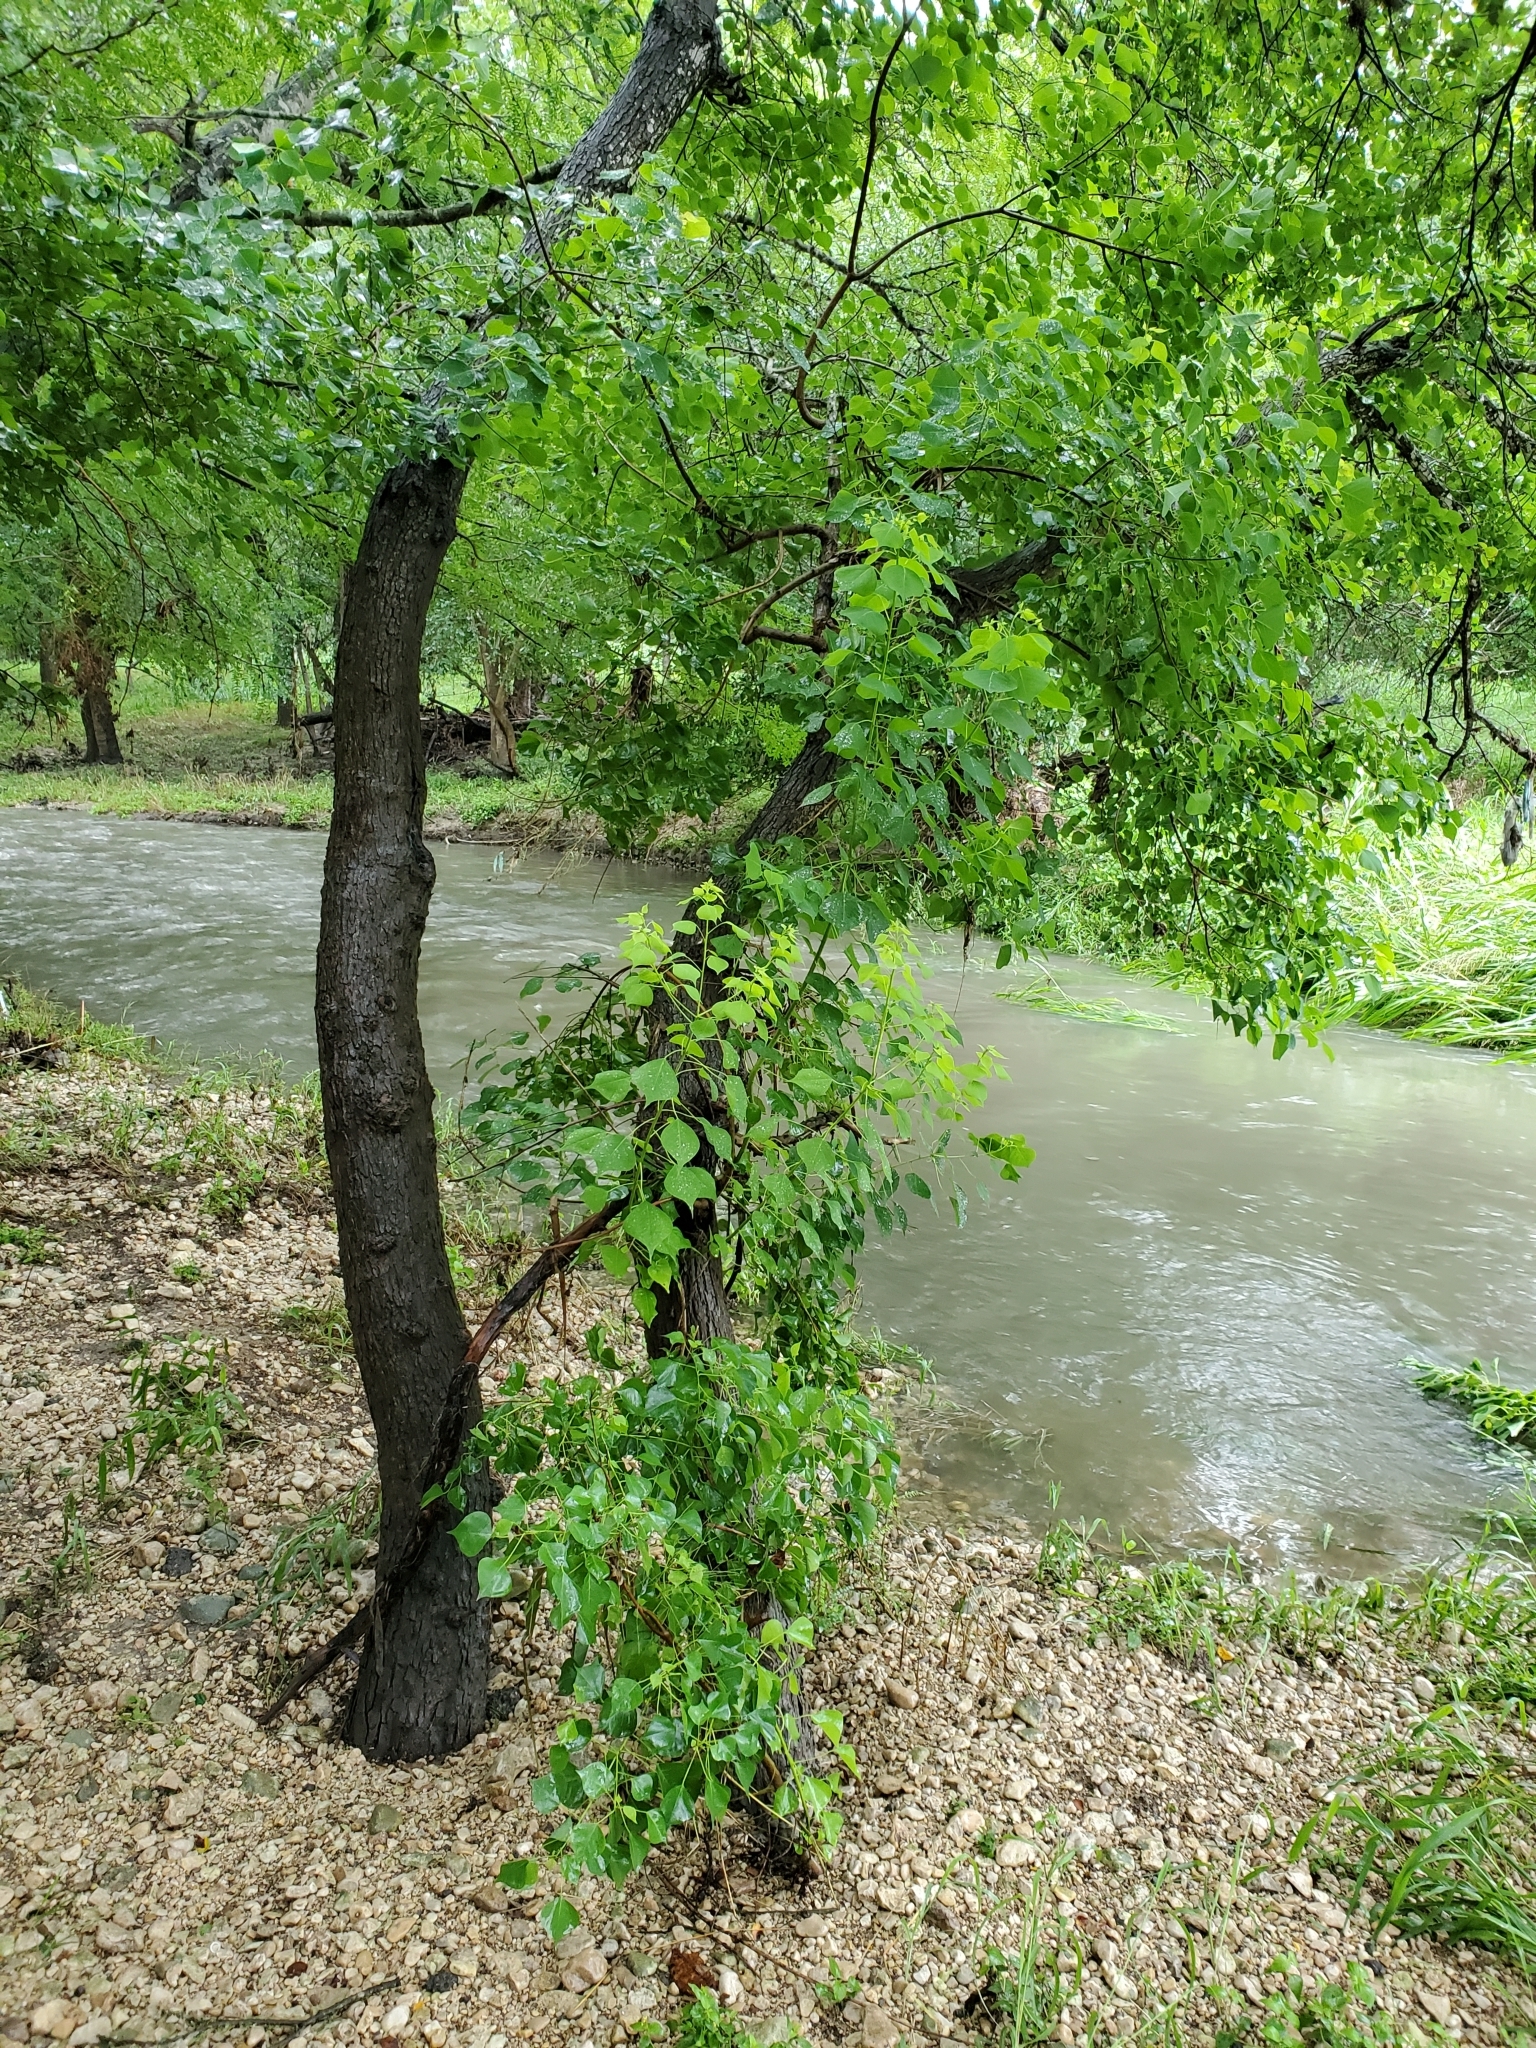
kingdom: Plantae
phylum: Tracheophyta
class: Magnoliopsida
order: Malpighiales
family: Euphorbiaceae
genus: Triadica
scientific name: Triadica sebifera
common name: Chinese tallow
